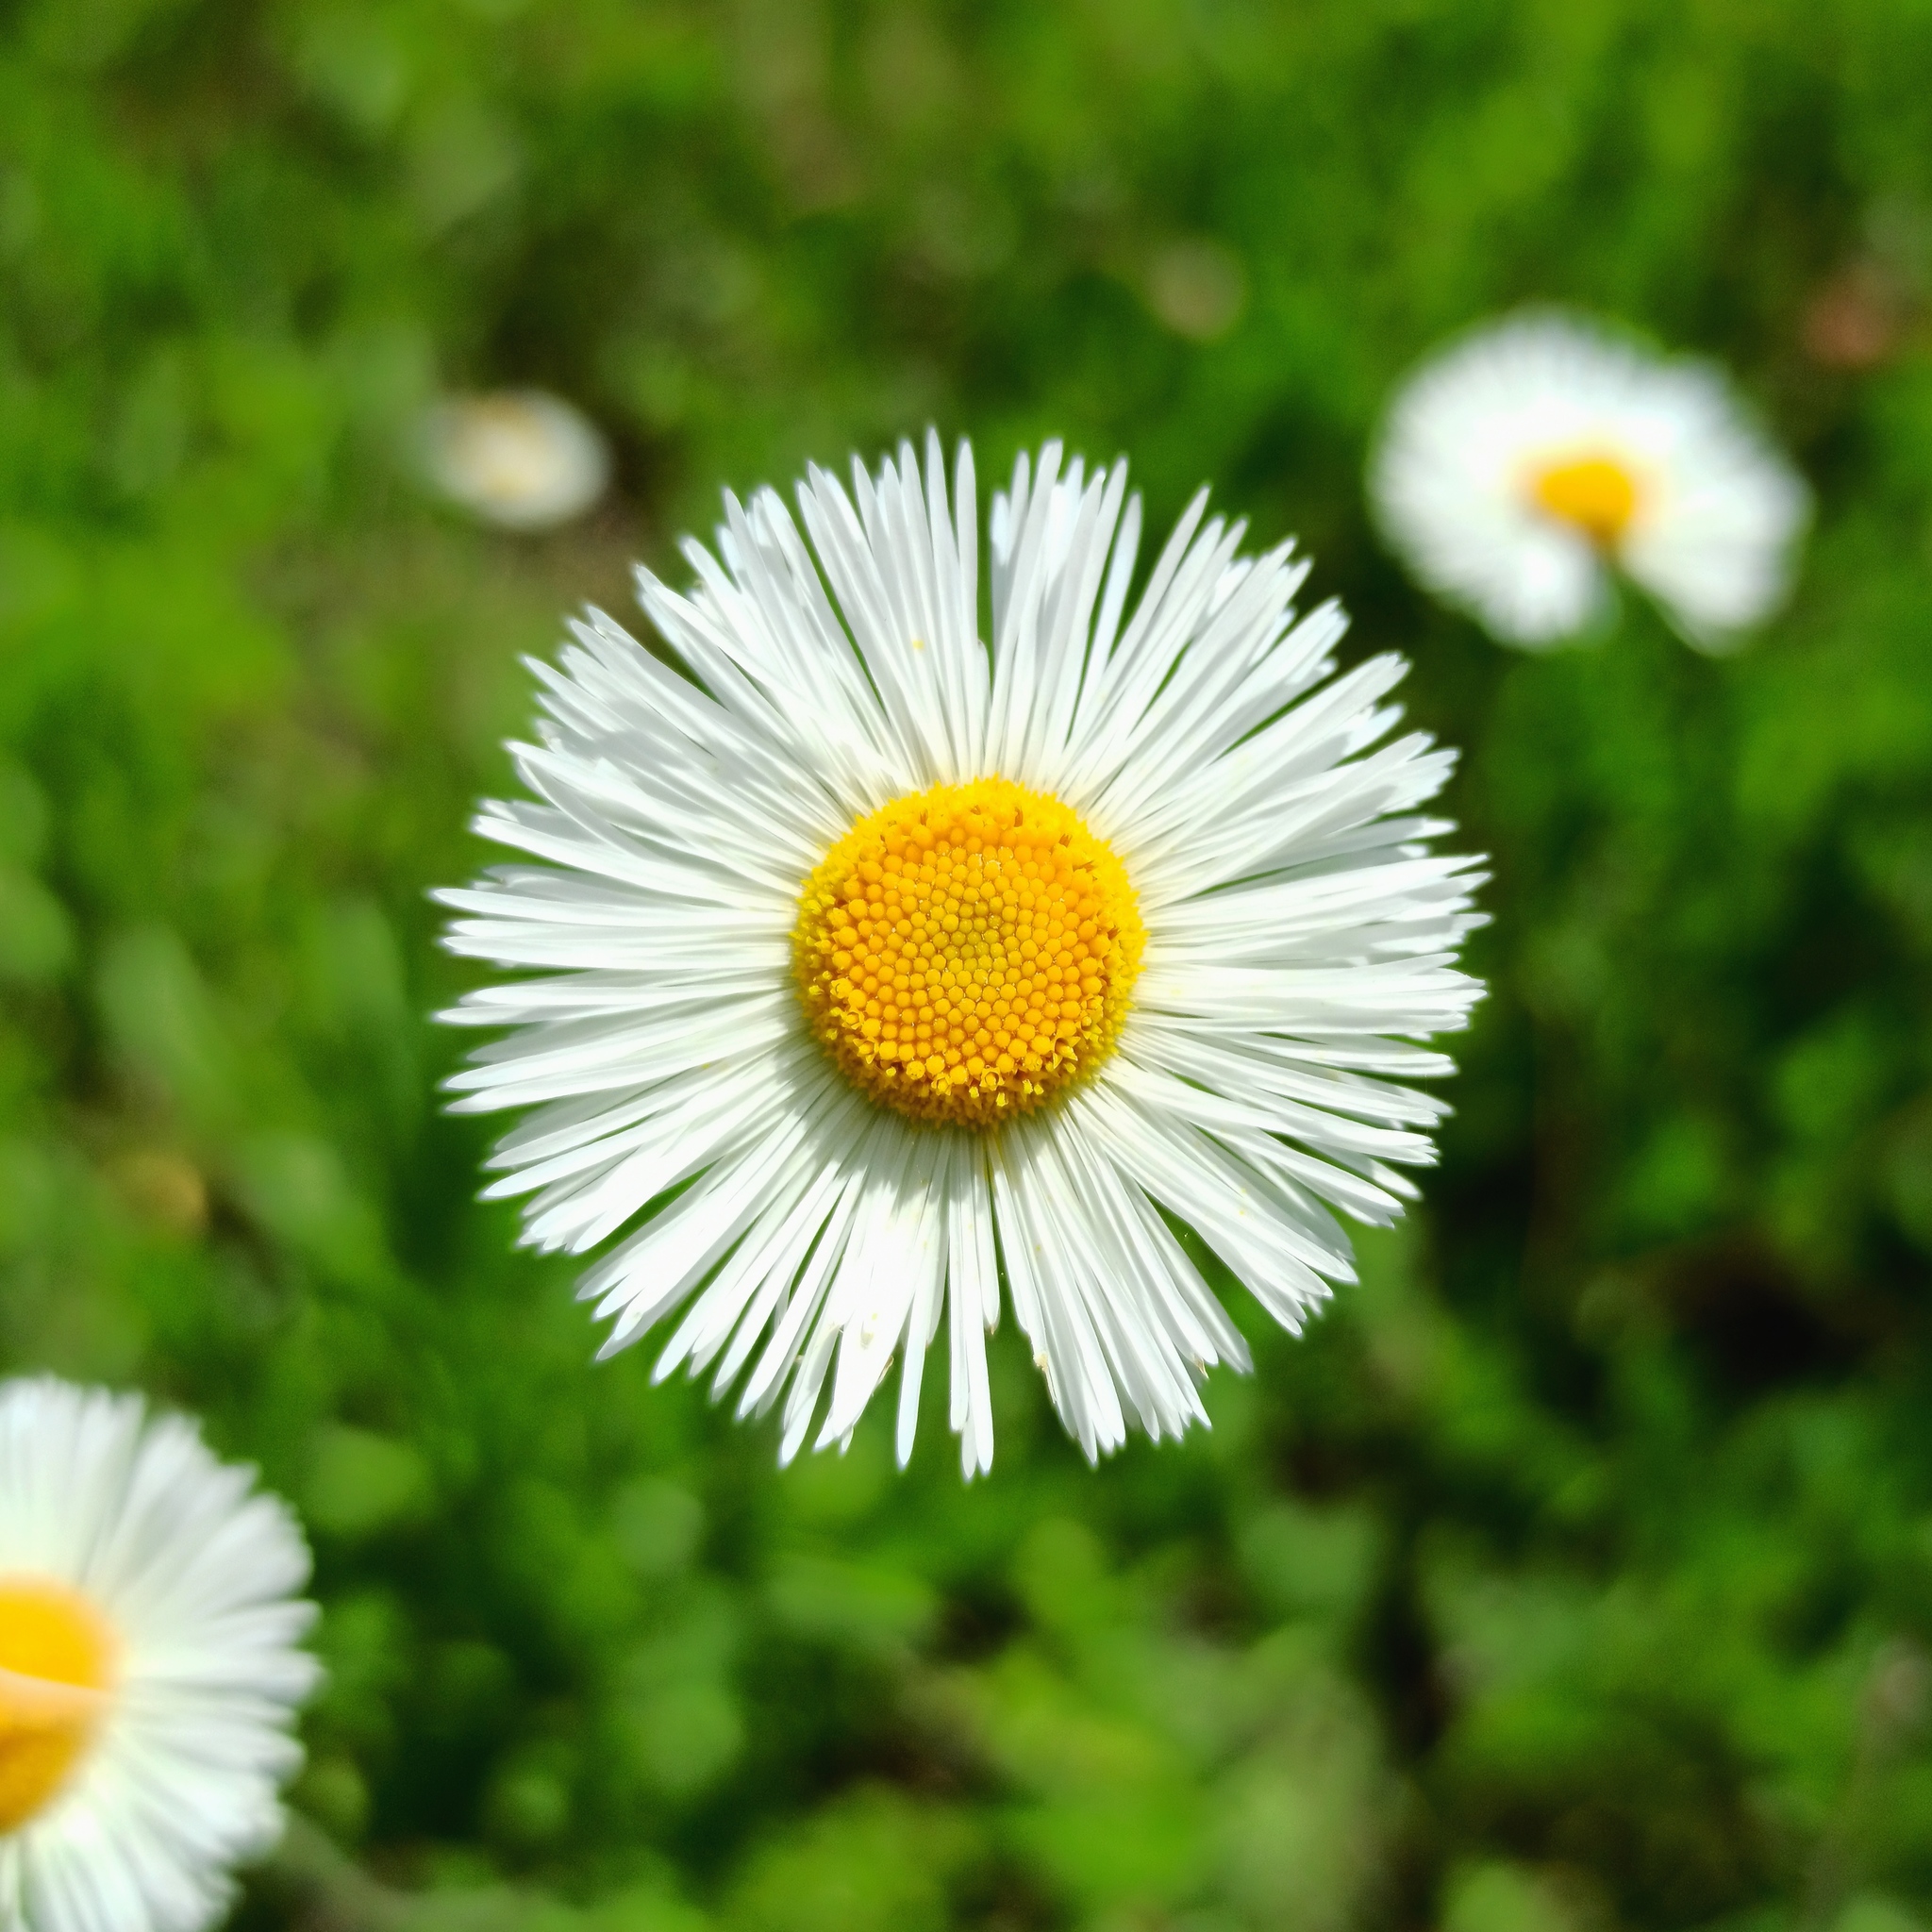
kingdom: Plantae
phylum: Tracheophyta
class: Magnoliopsida
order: Asterales
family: Asteraceae
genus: Erigeron
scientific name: Erigeron longipes
